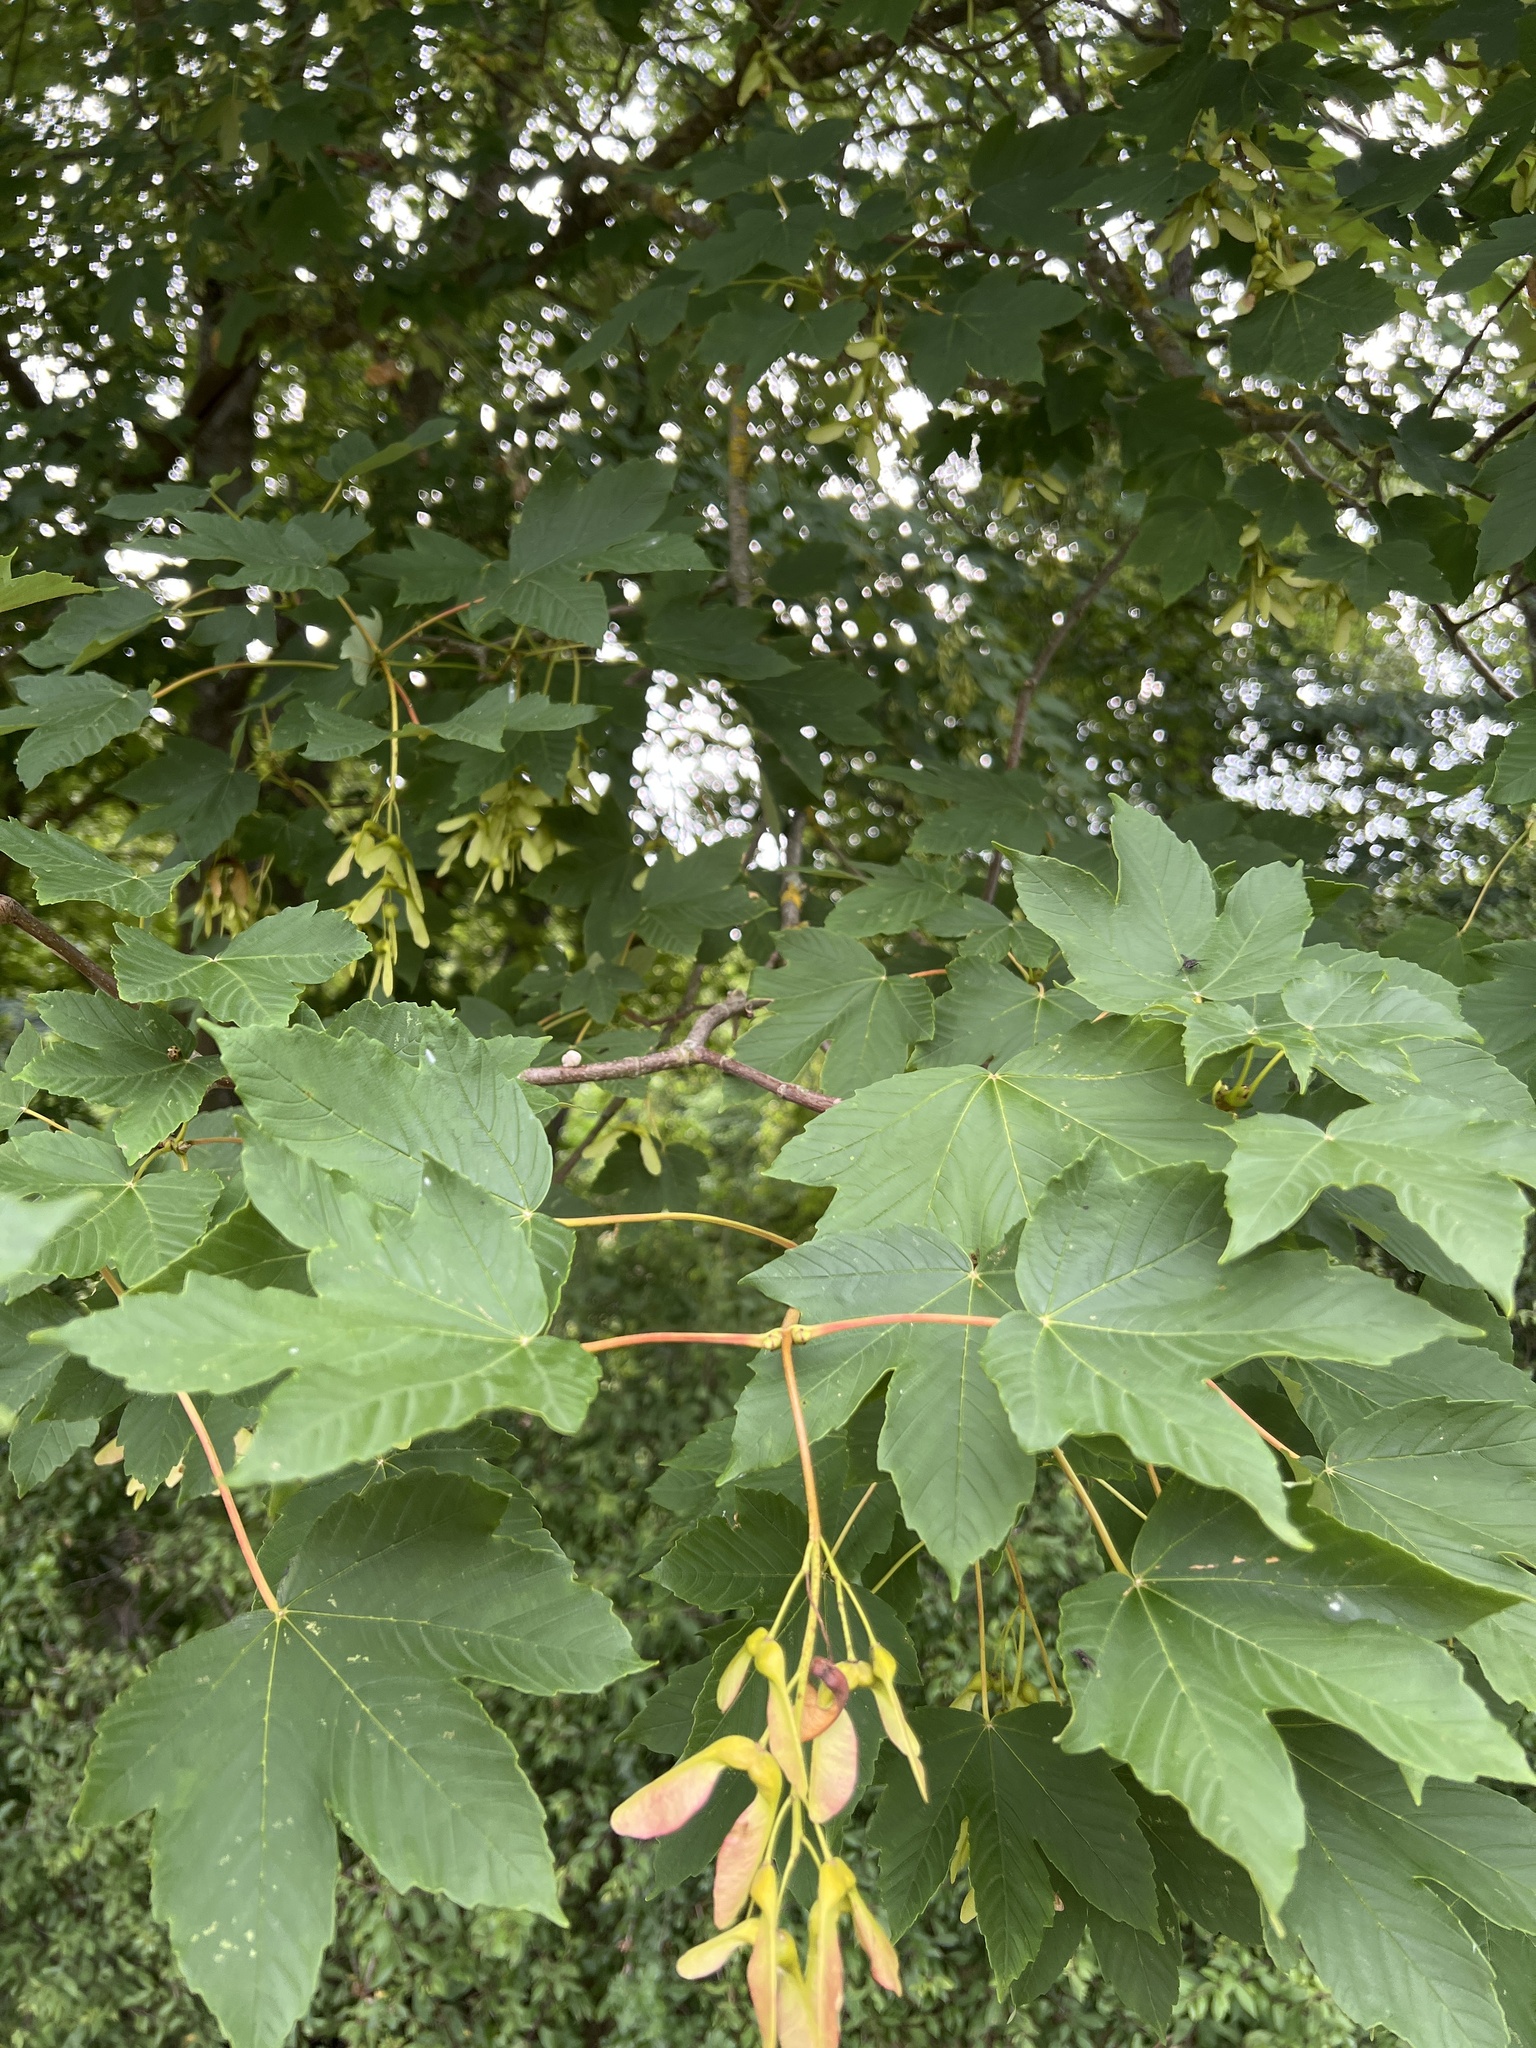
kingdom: Plantae
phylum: Tracheophyta
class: Magnoliopsida
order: Sapindales
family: Sapindaceae
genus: Acer
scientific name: Acer pseudoplatanus
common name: Sycamore
